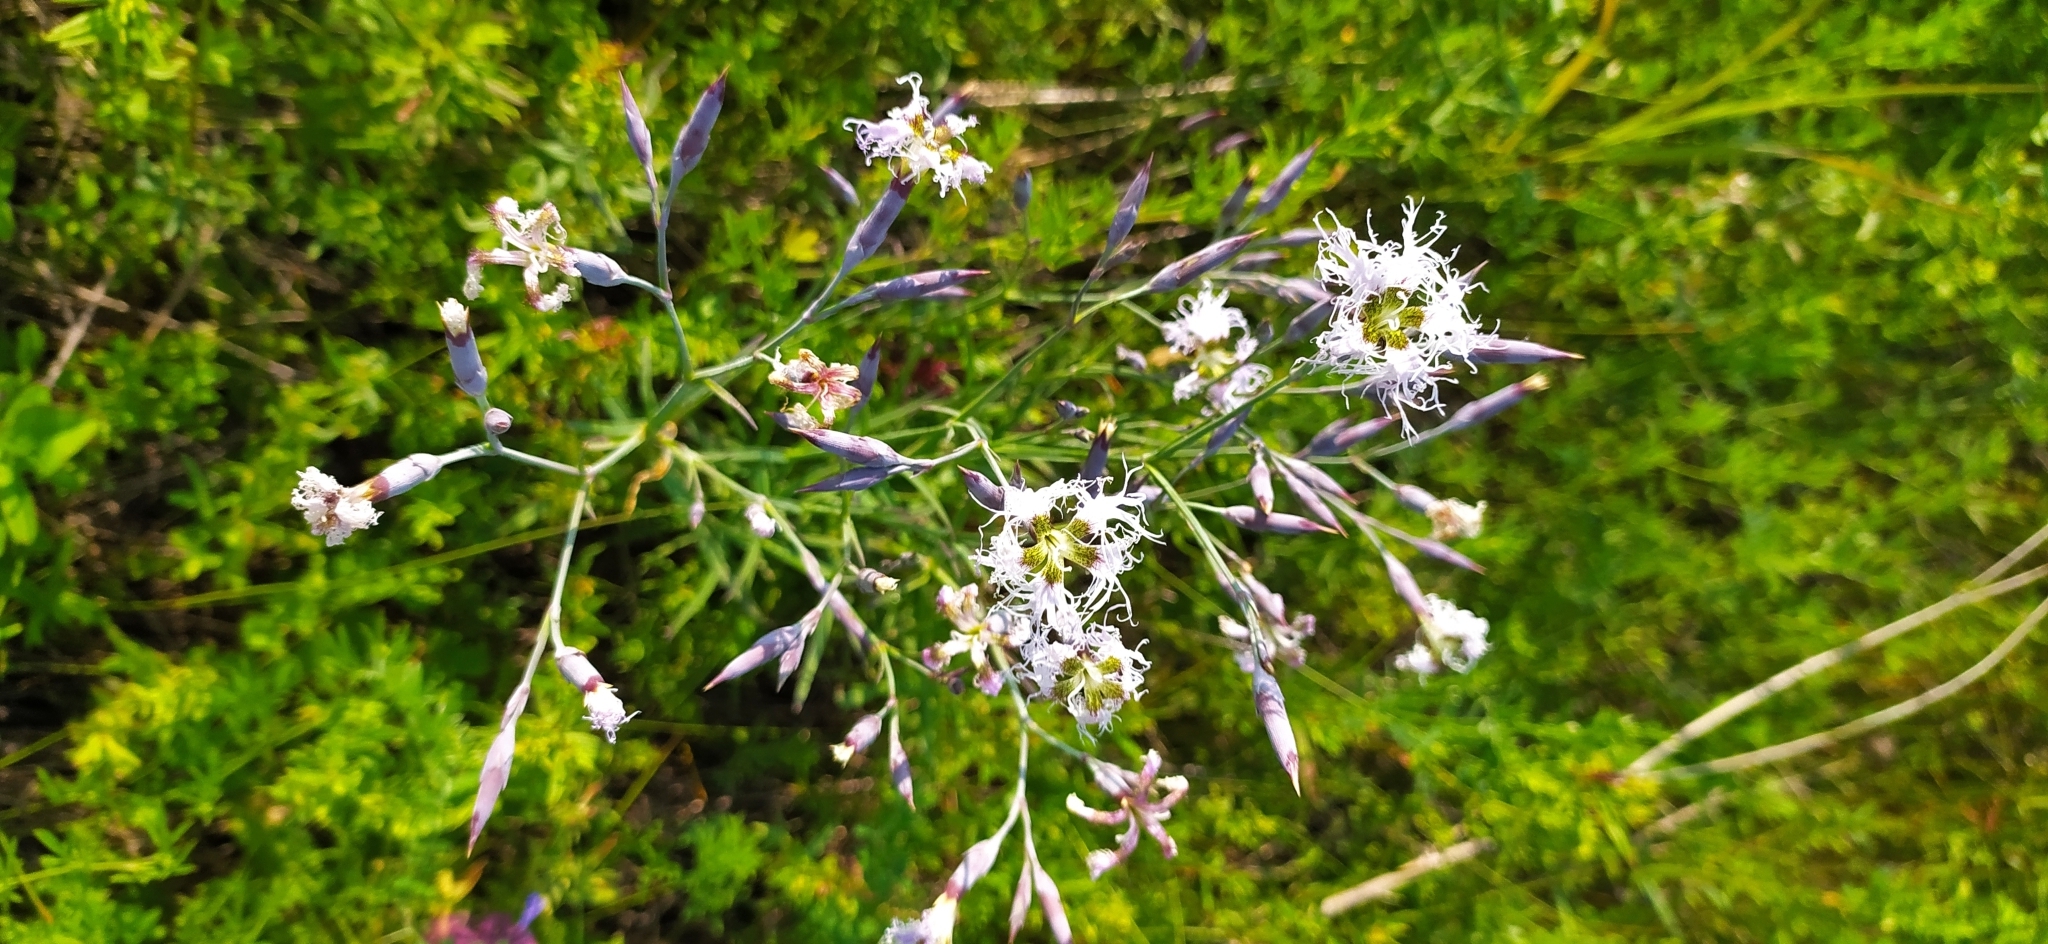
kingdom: Plantae
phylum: Tracheophyta
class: Magnoliopsida
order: Caryophyllales
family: Caryophyllaceae
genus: Dianthus
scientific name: Dianthus superbus
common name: Fringed pink
